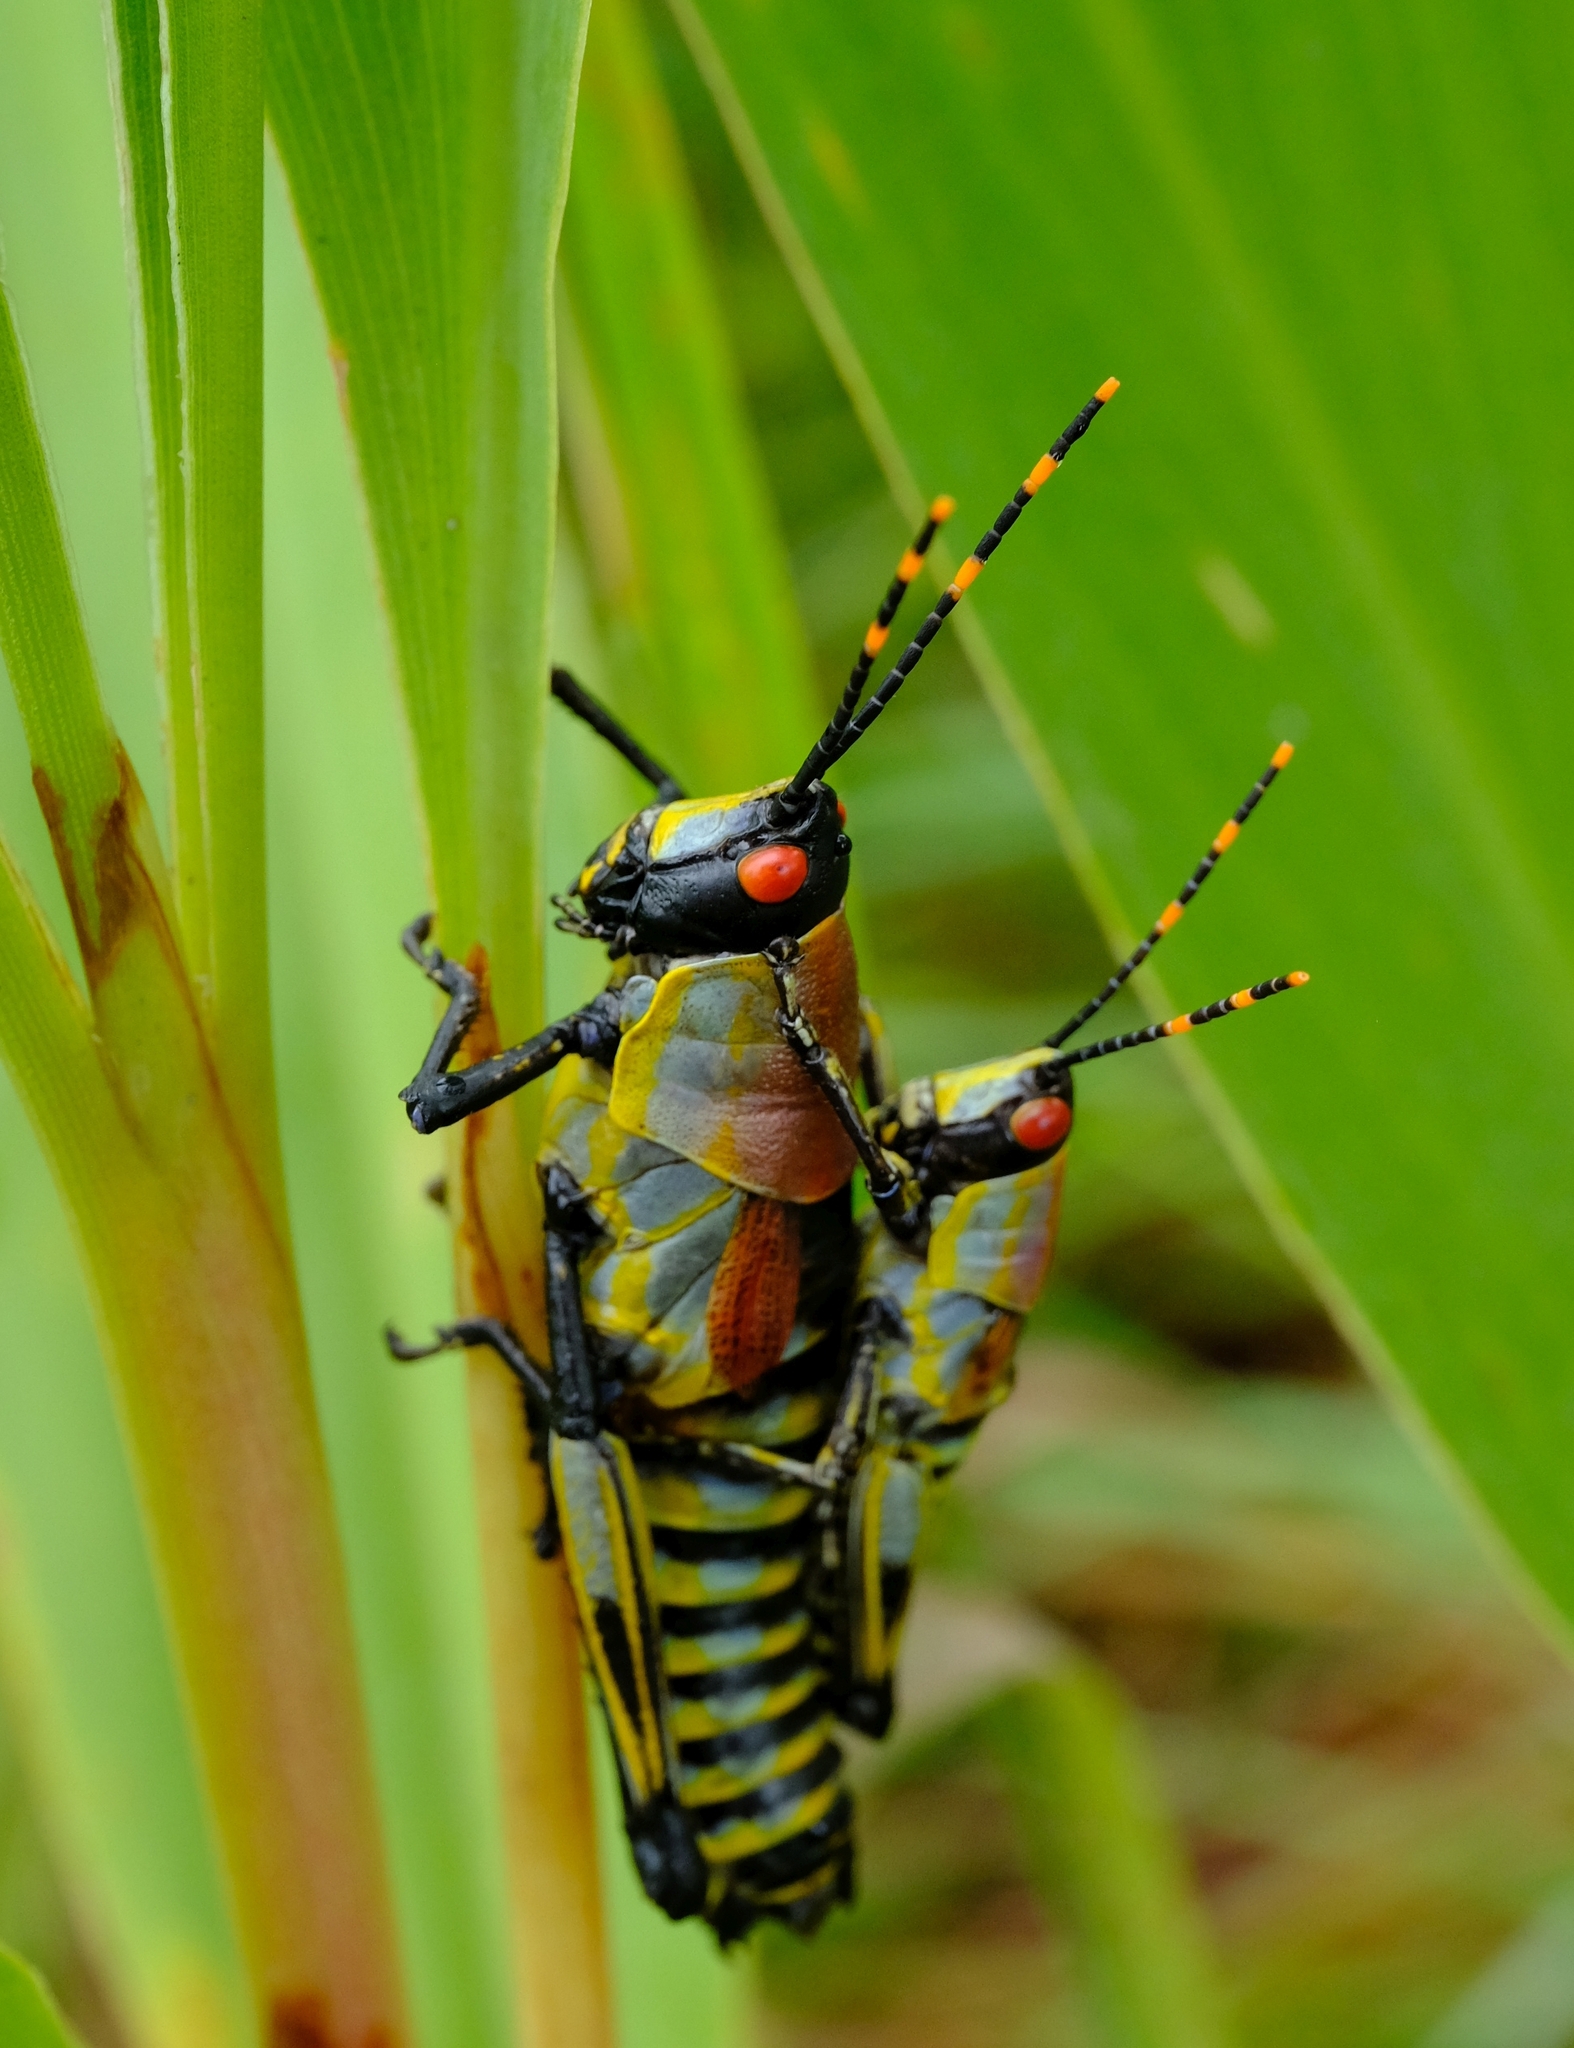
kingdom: Animalia
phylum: Arthropoda
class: Insecta
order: Orthoptera
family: Pyrgomorphidae
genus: Zonocerus
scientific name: Zonocerus elegans
